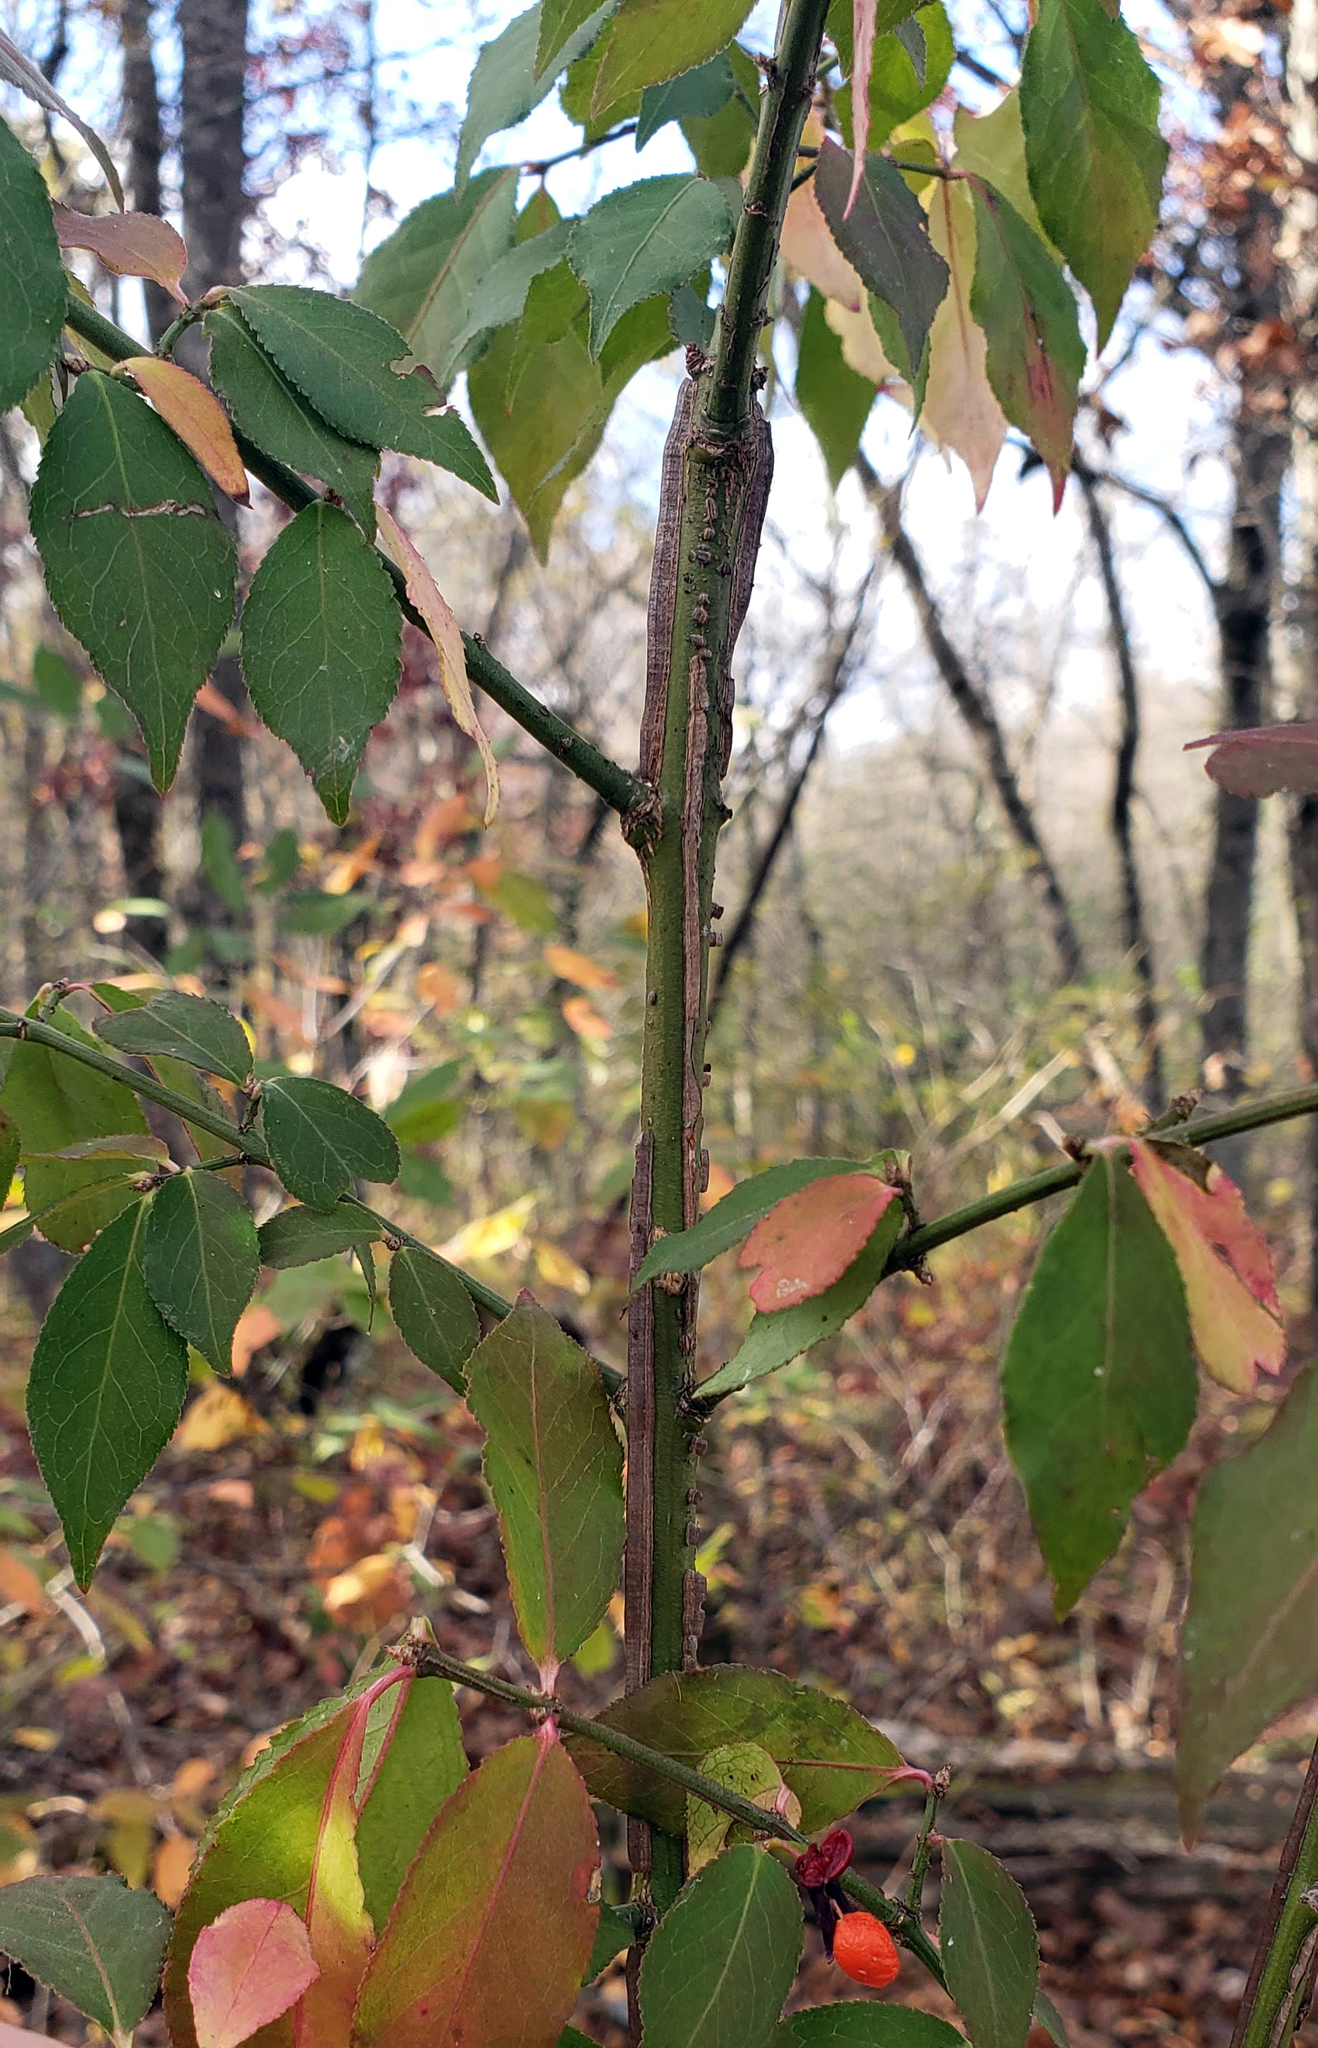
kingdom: Plantae
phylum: Tracheophyta
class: Magnoliopsida
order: Celastrales
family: Celastraceae
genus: Euonymus
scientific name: Euonymus alatus
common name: Winged euonymus
